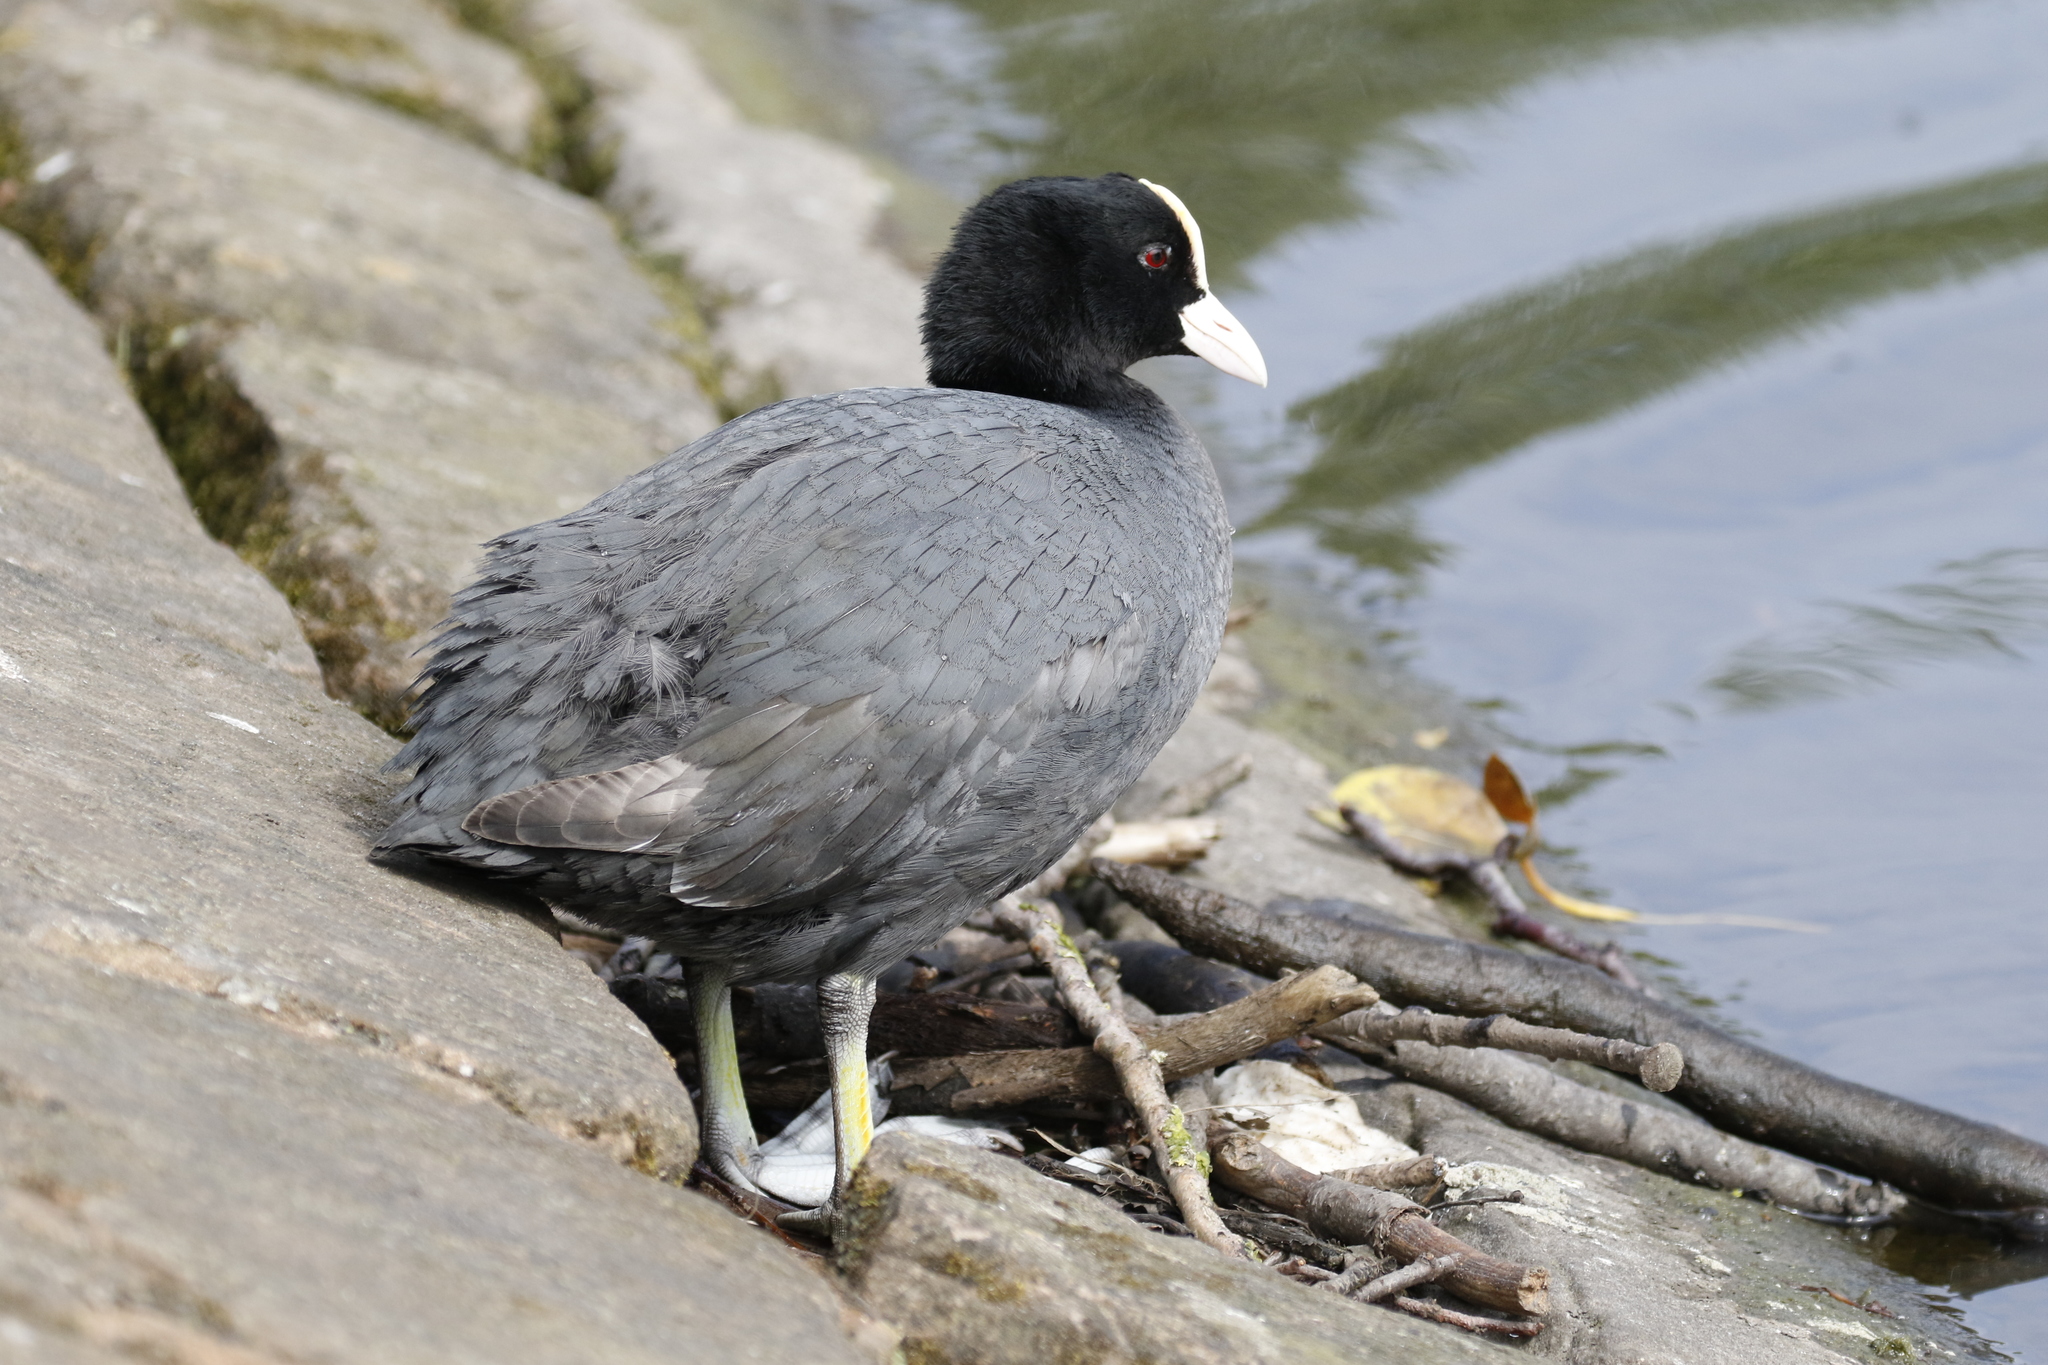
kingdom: Animalia
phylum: Chordata
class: Aves
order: Gruiformes
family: Rallidae
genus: Fulica
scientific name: Fulica atra
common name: Eurasian coot
